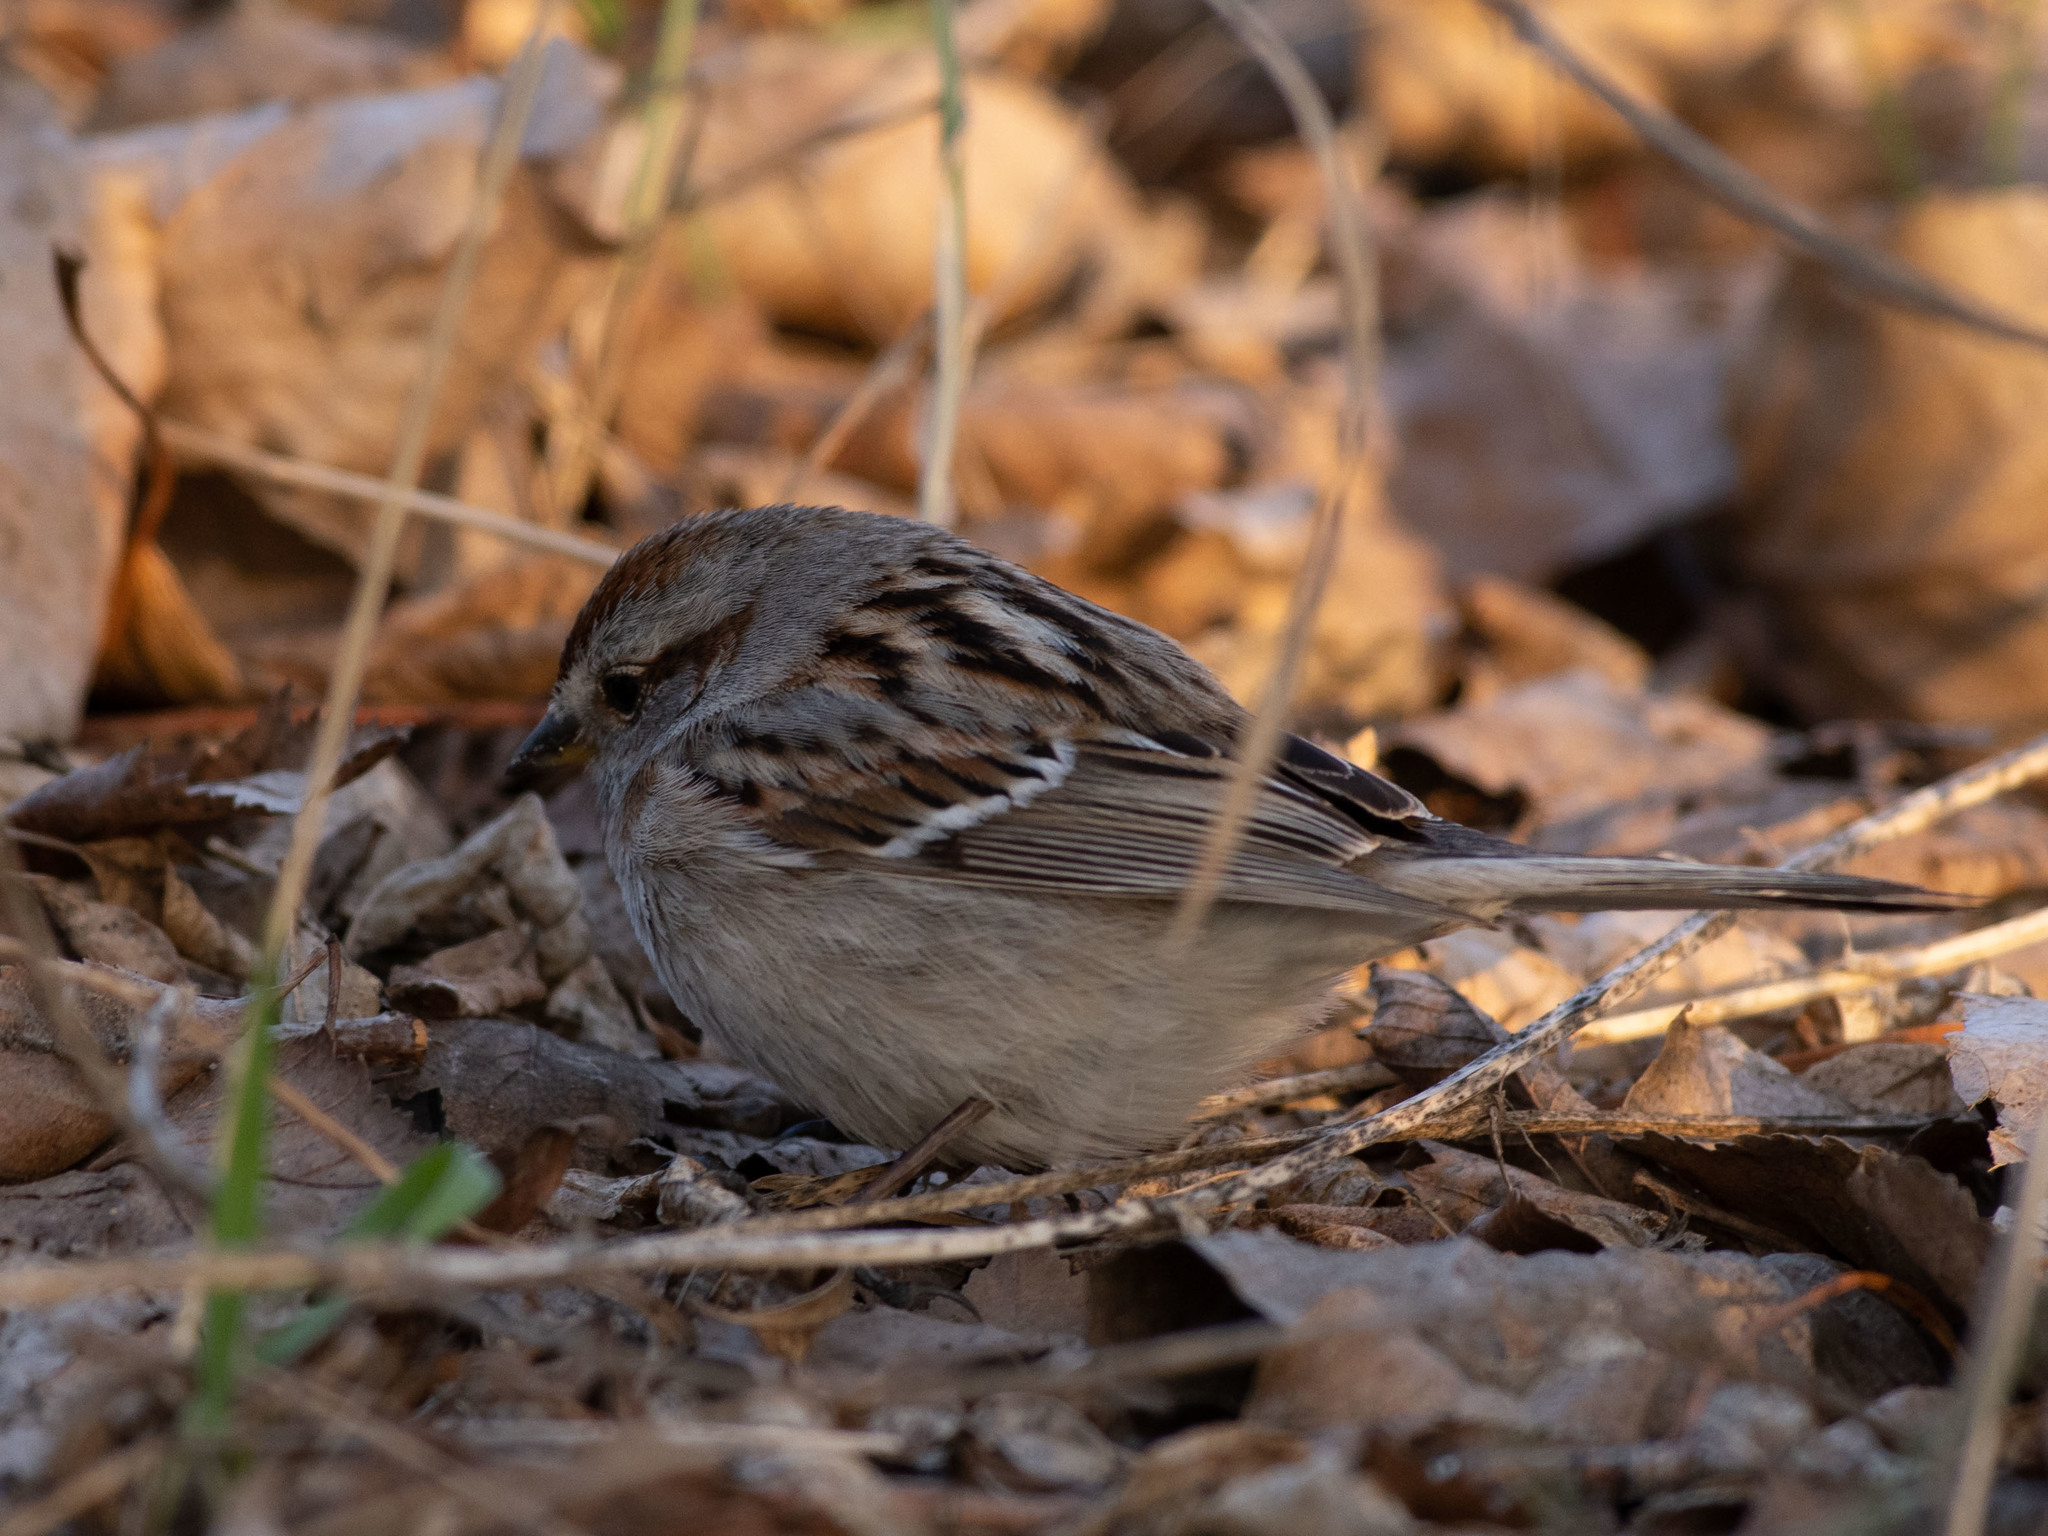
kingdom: Animalia
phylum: Chordata
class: Aves
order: Passeriformes
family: Passerellidae
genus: Spizelloides
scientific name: Spizelloides arborea
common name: American tree sparrow
